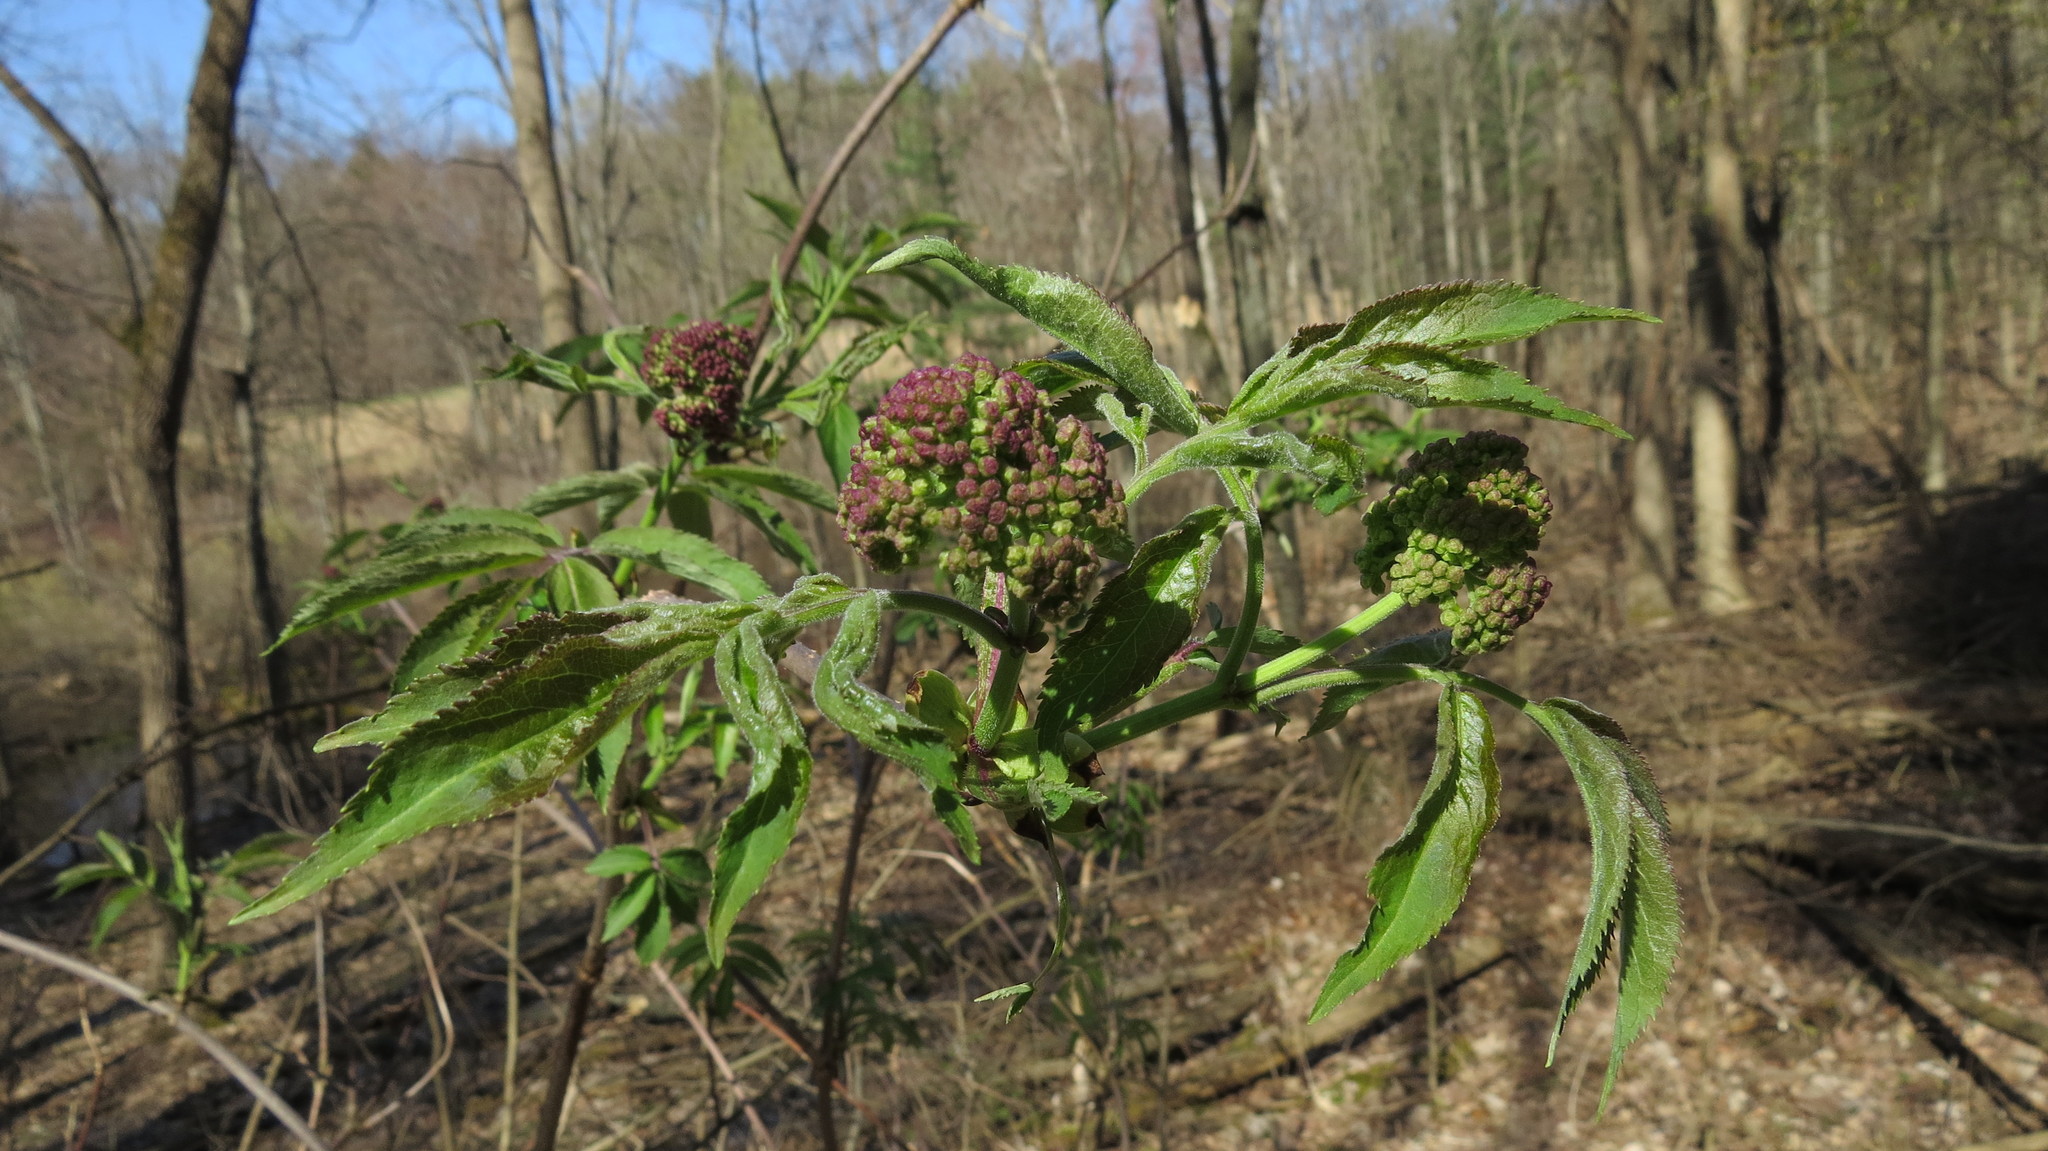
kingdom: Plantae
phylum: Tracheophyta
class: Magnoliopsida
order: Dipsacales
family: Viburnaceae
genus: Sambucus
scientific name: Sambucus racemosa
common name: Red-berried elder
